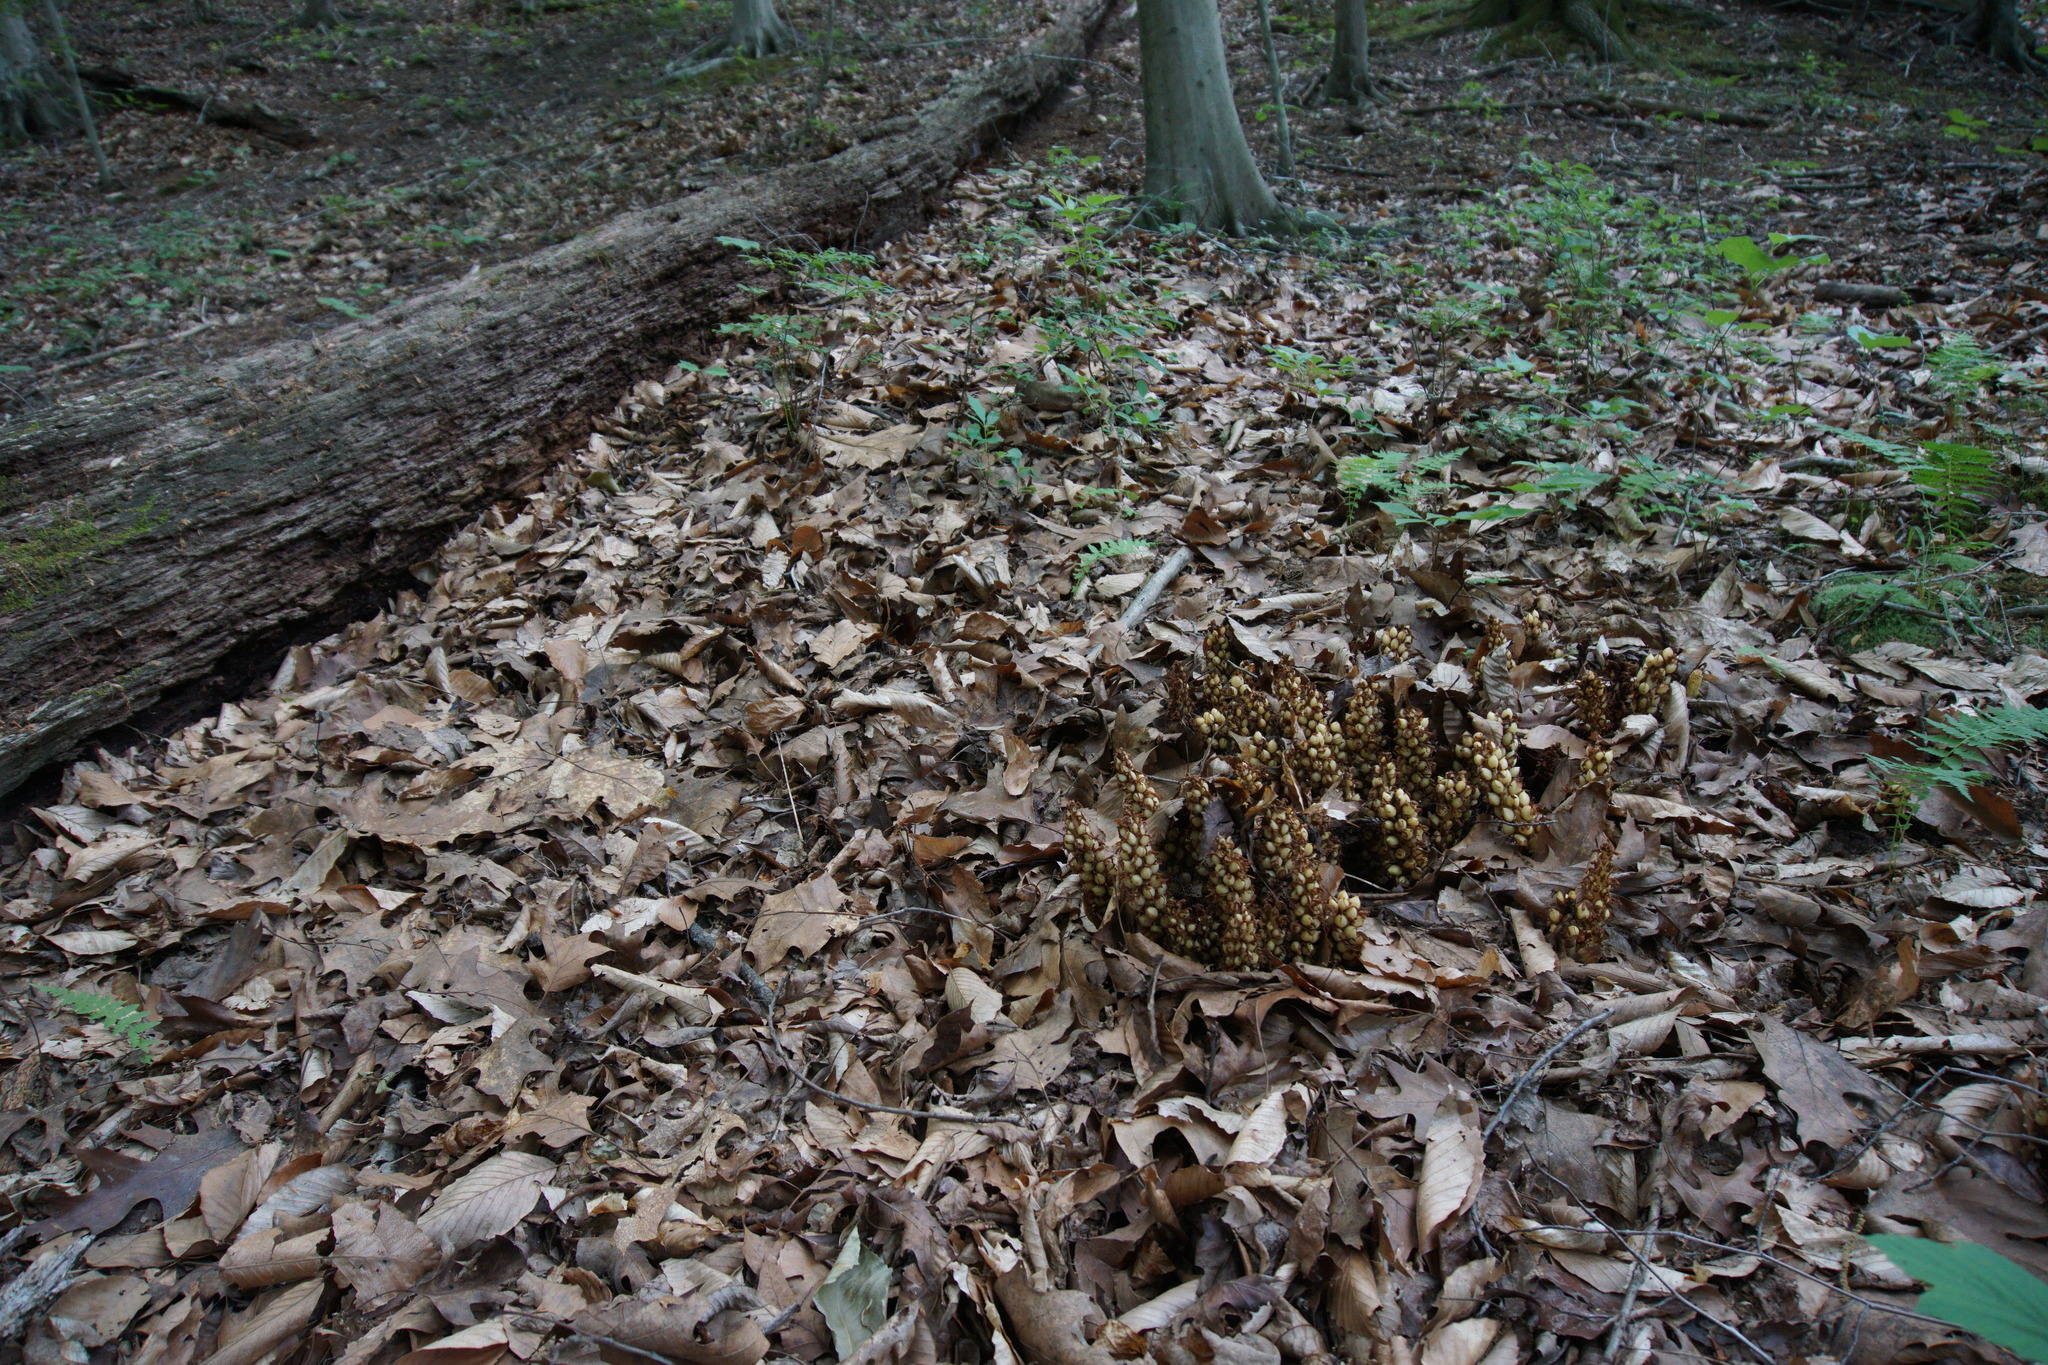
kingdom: Plantae
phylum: Tracheophyta
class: Magnoliopsida
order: Lamiales
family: Orobanchaceae
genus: Conopholis
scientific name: Conopholis americana
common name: American cancer-root
